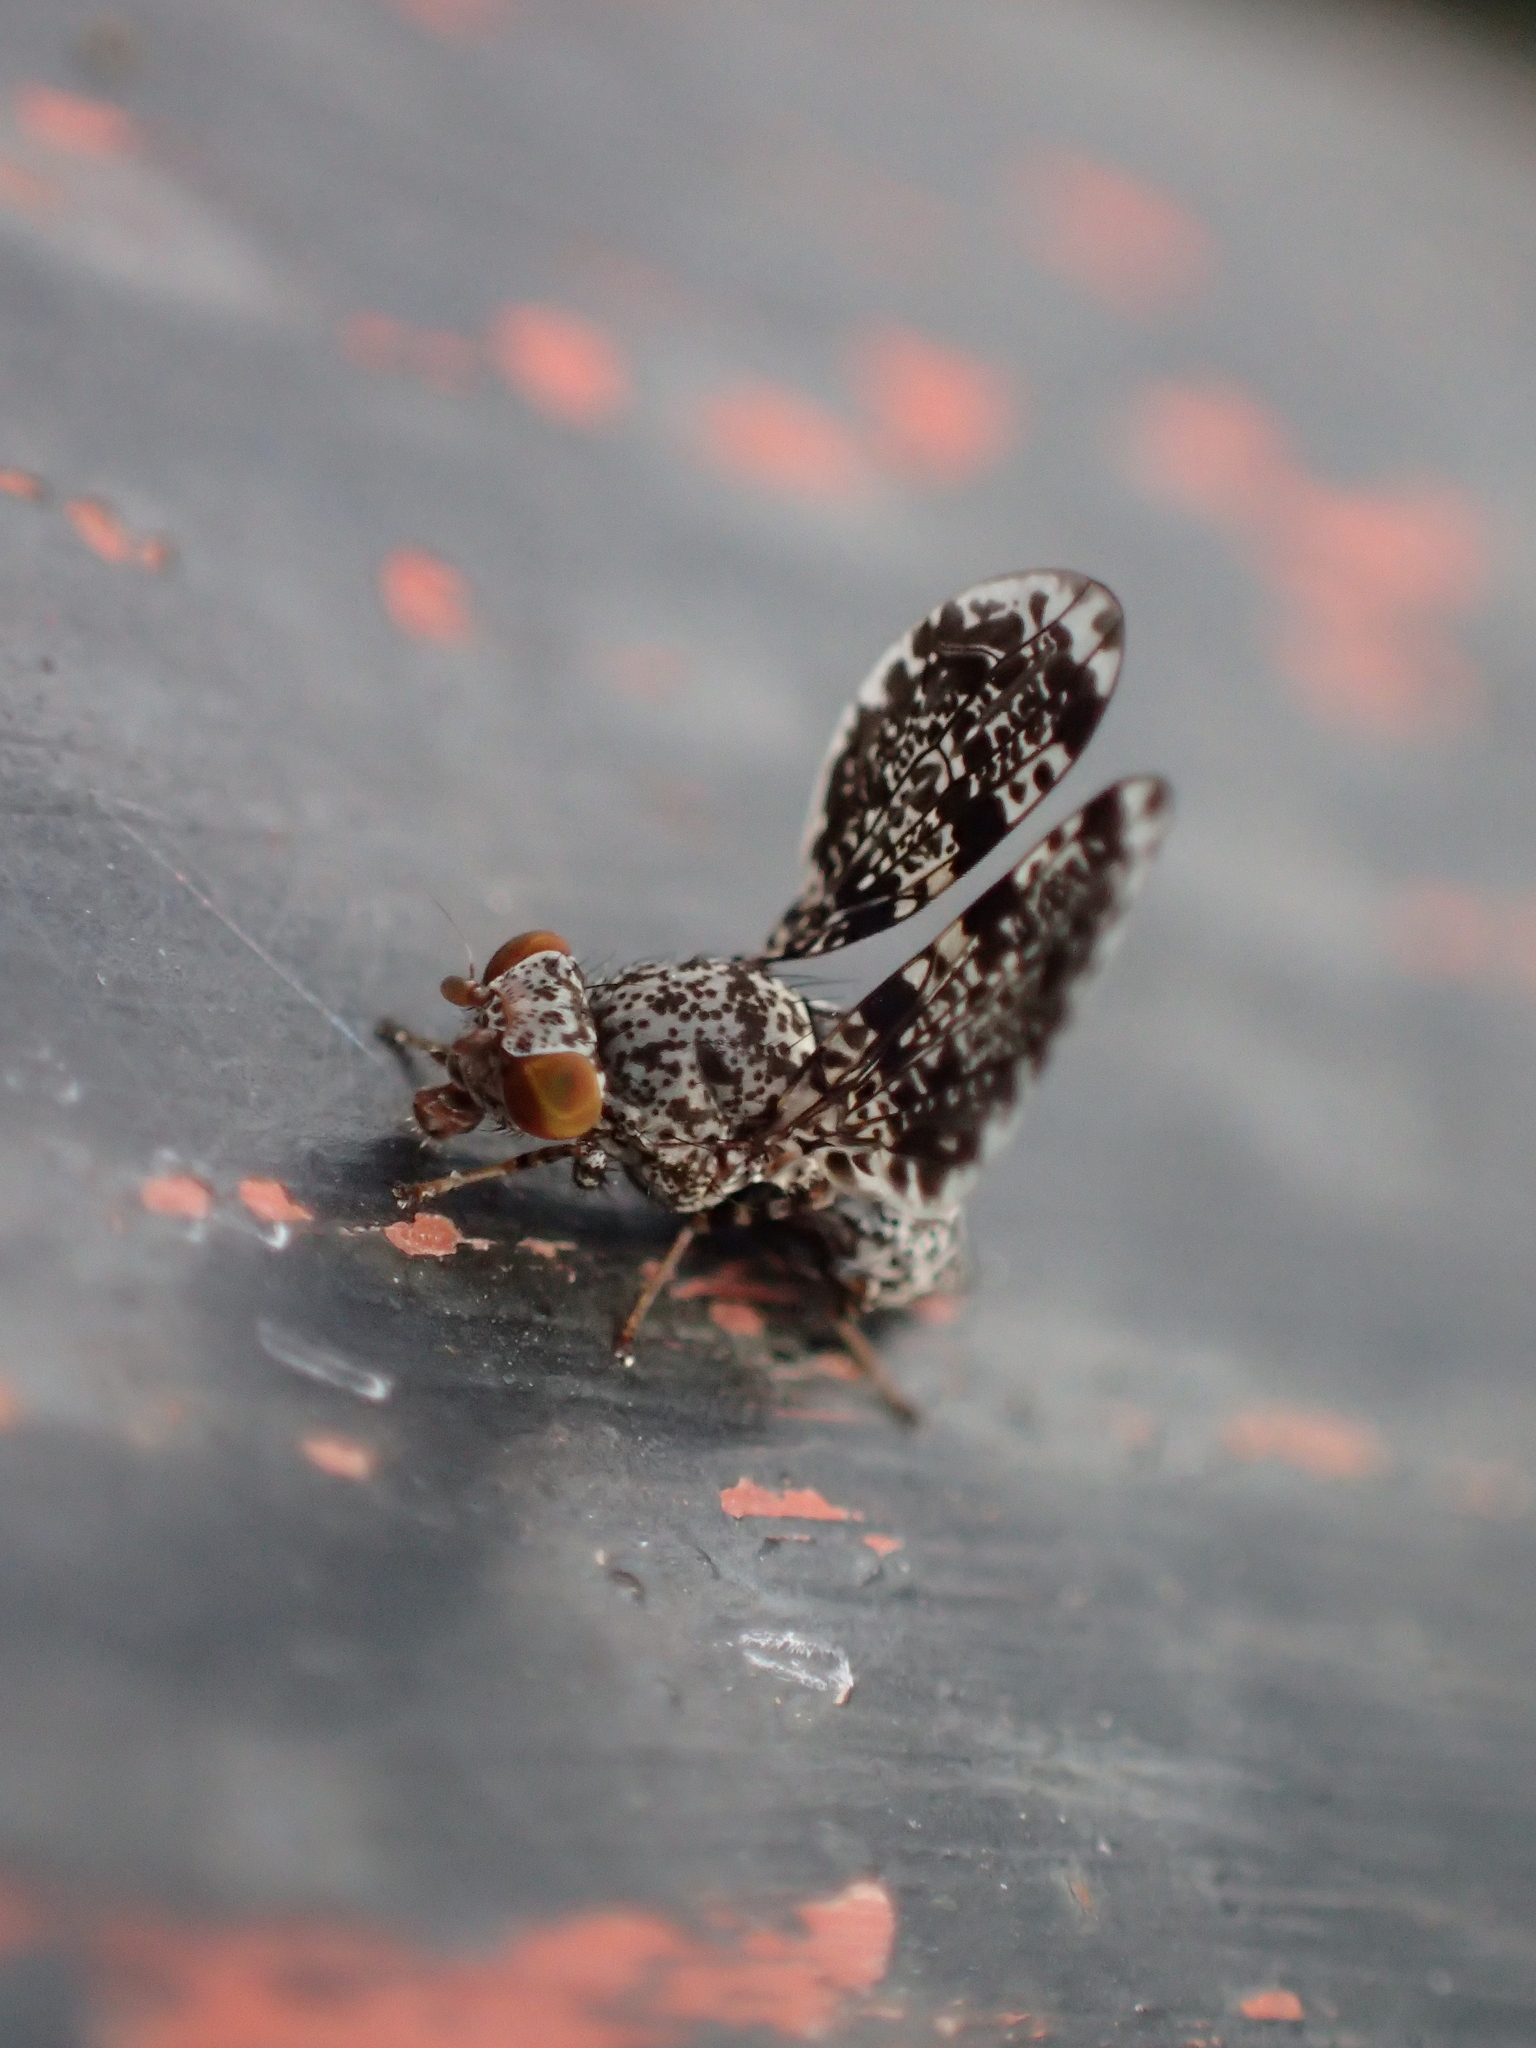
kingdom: Animalia
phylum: Arthropoda
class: Insecta
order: Diptera
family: Ulidiidae
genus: Callopistromyia
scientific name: Callopistromyia annulipes
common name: Peacock fly
